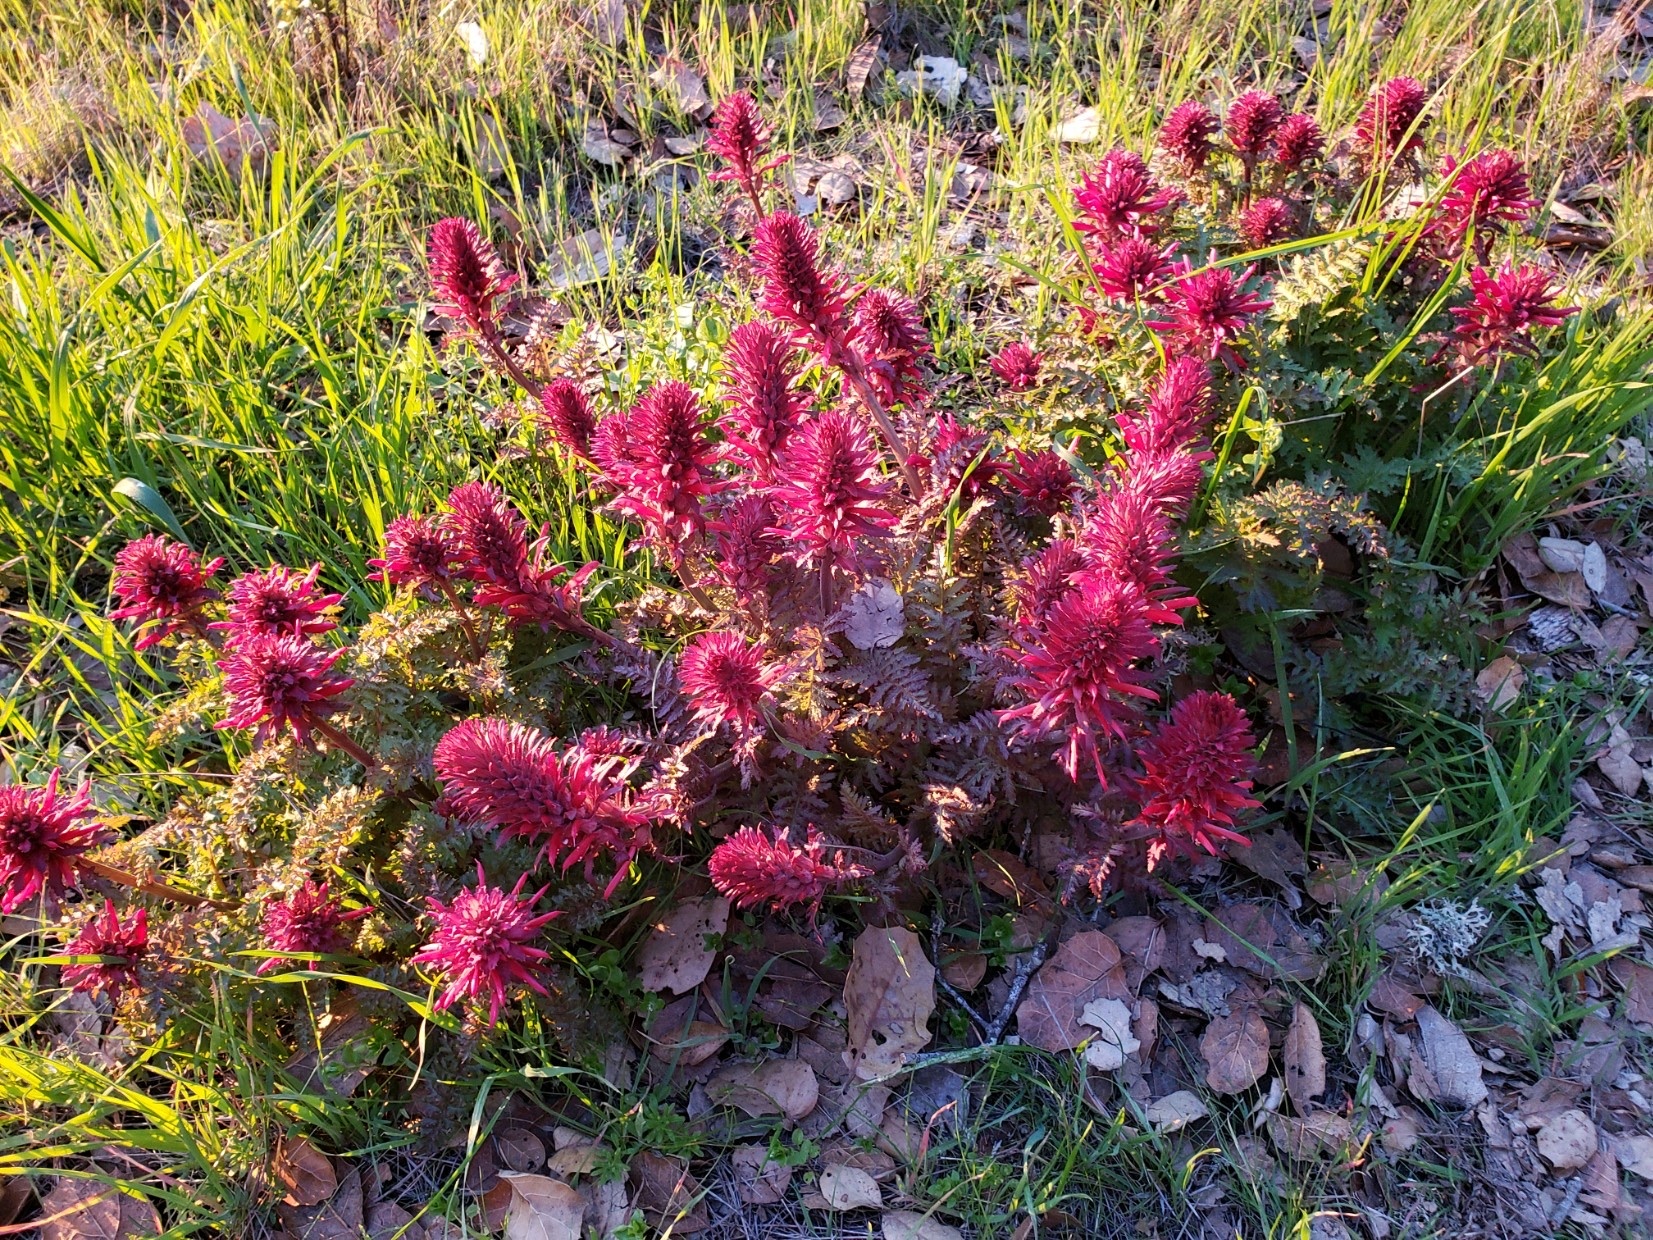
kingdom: Plantae
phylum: Tracheophyta
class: Magnoliopsida
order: Lamiales
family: Orobanchaceae
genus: Pedicularis
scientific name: Pedicularis densiflora
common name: Indian warrior
